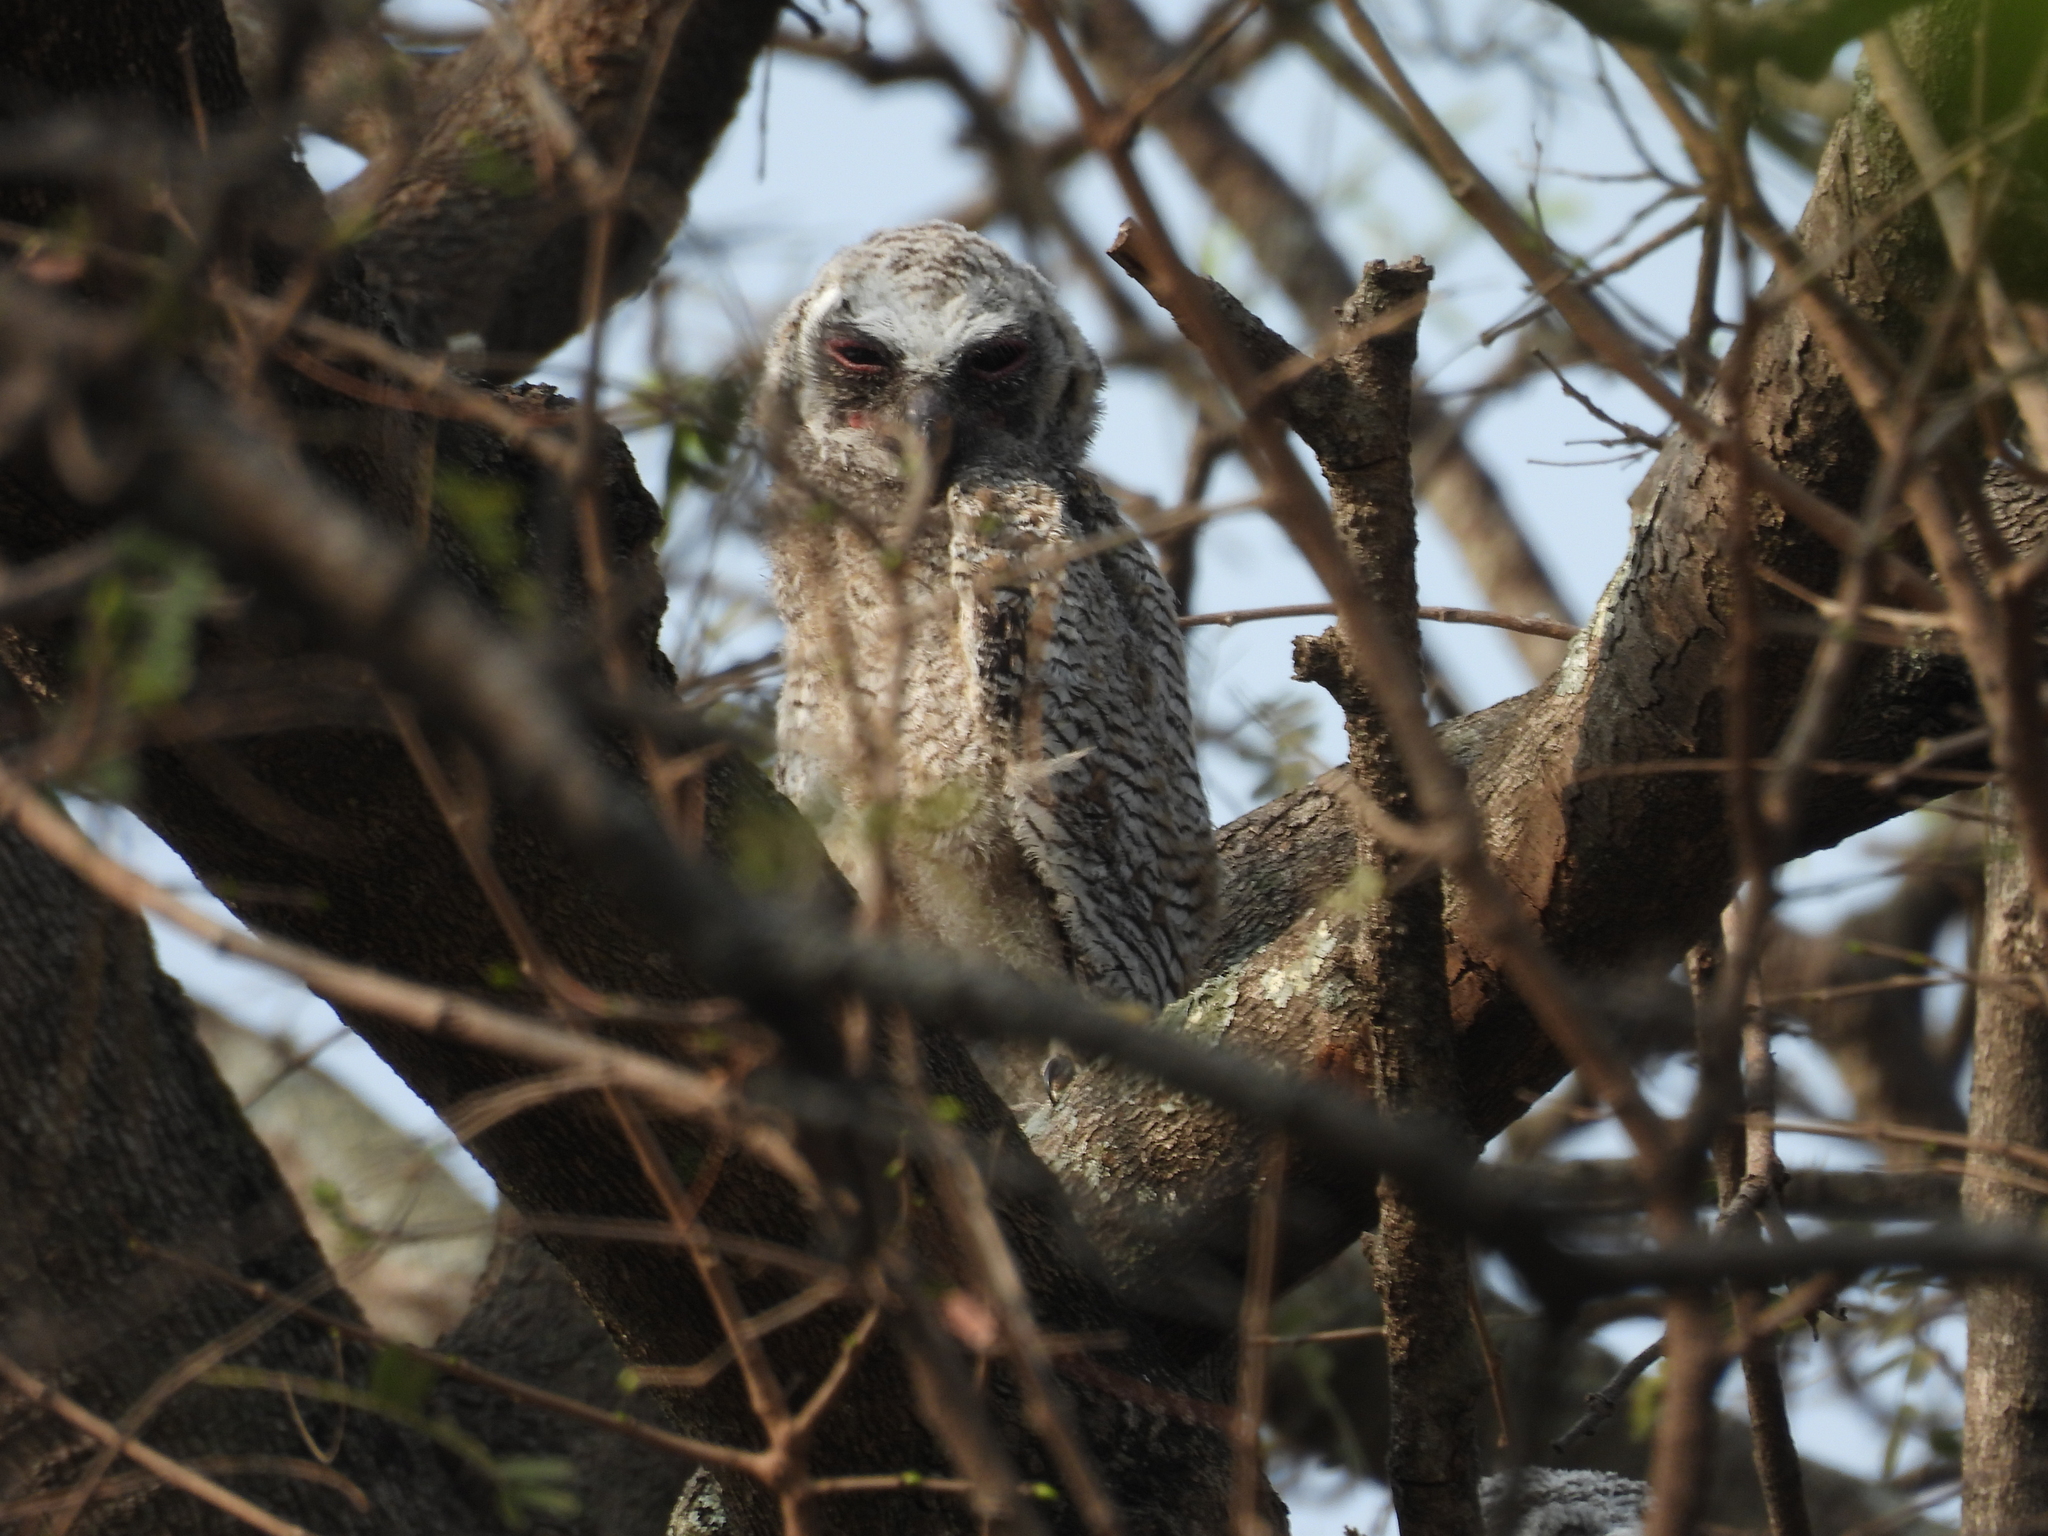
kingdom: Animalia
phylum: Chordata
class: Aves
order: Strigiformes
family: Strigidae
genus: Strix
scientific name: Strix ocellata
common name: Mottled wood owl
